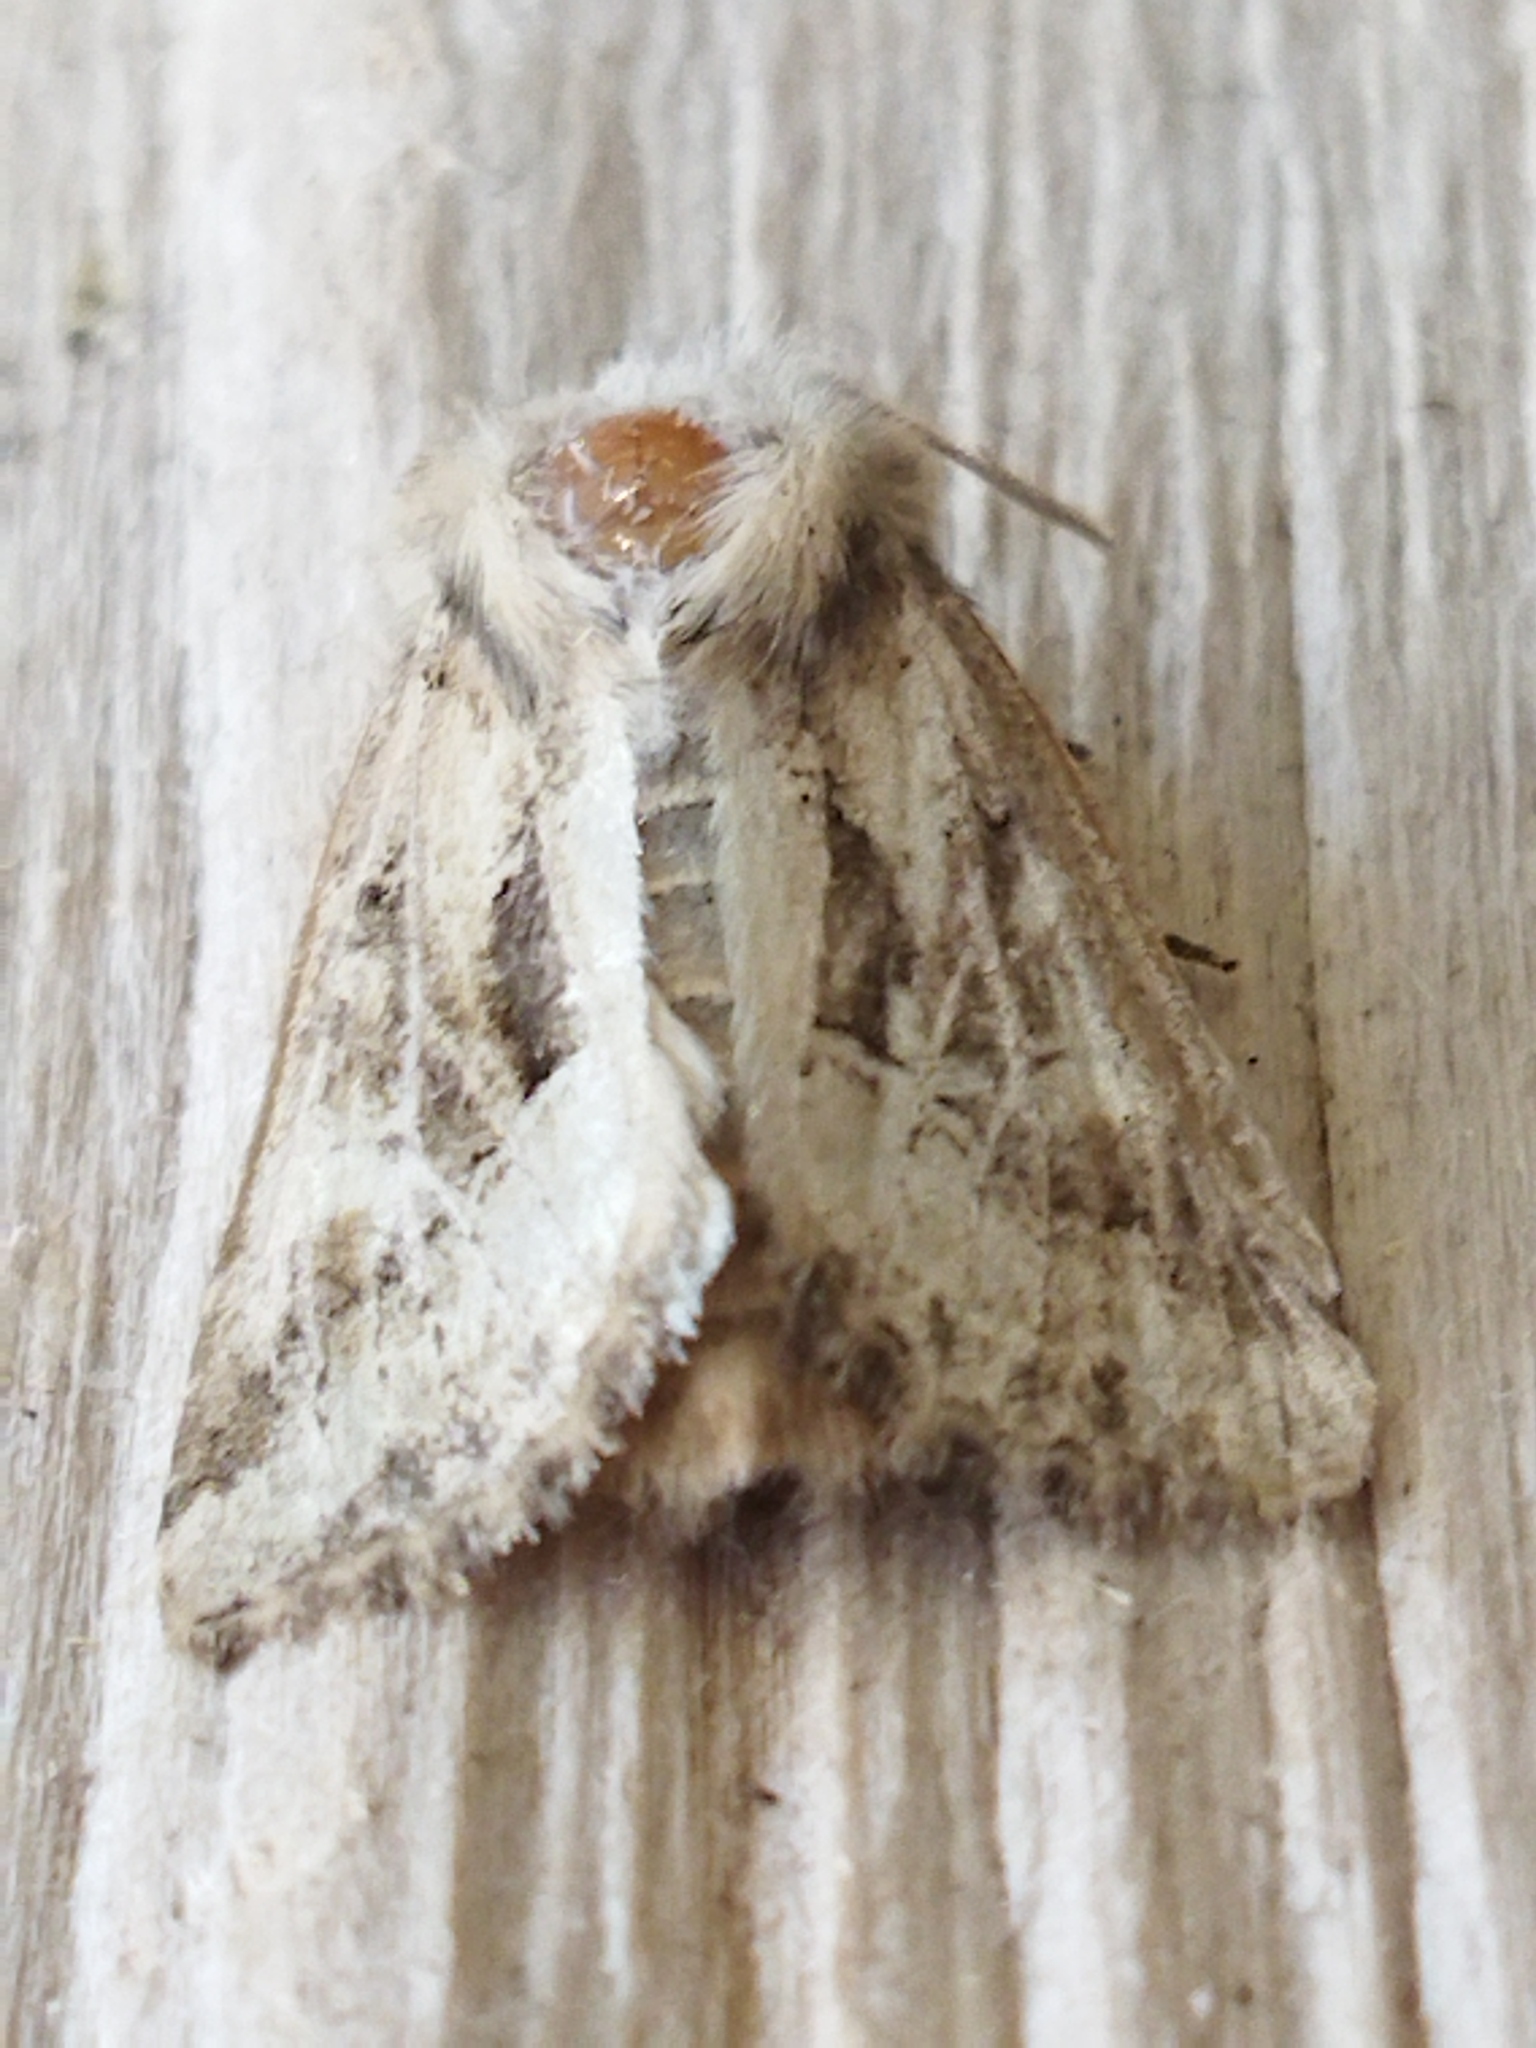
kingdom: Animalia
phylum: Arthropoda
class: Insecta
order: Lepidoptera
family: Noctuidae
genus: Luperina
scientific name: Luperina dumerilii
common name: Dumeril's rustic
